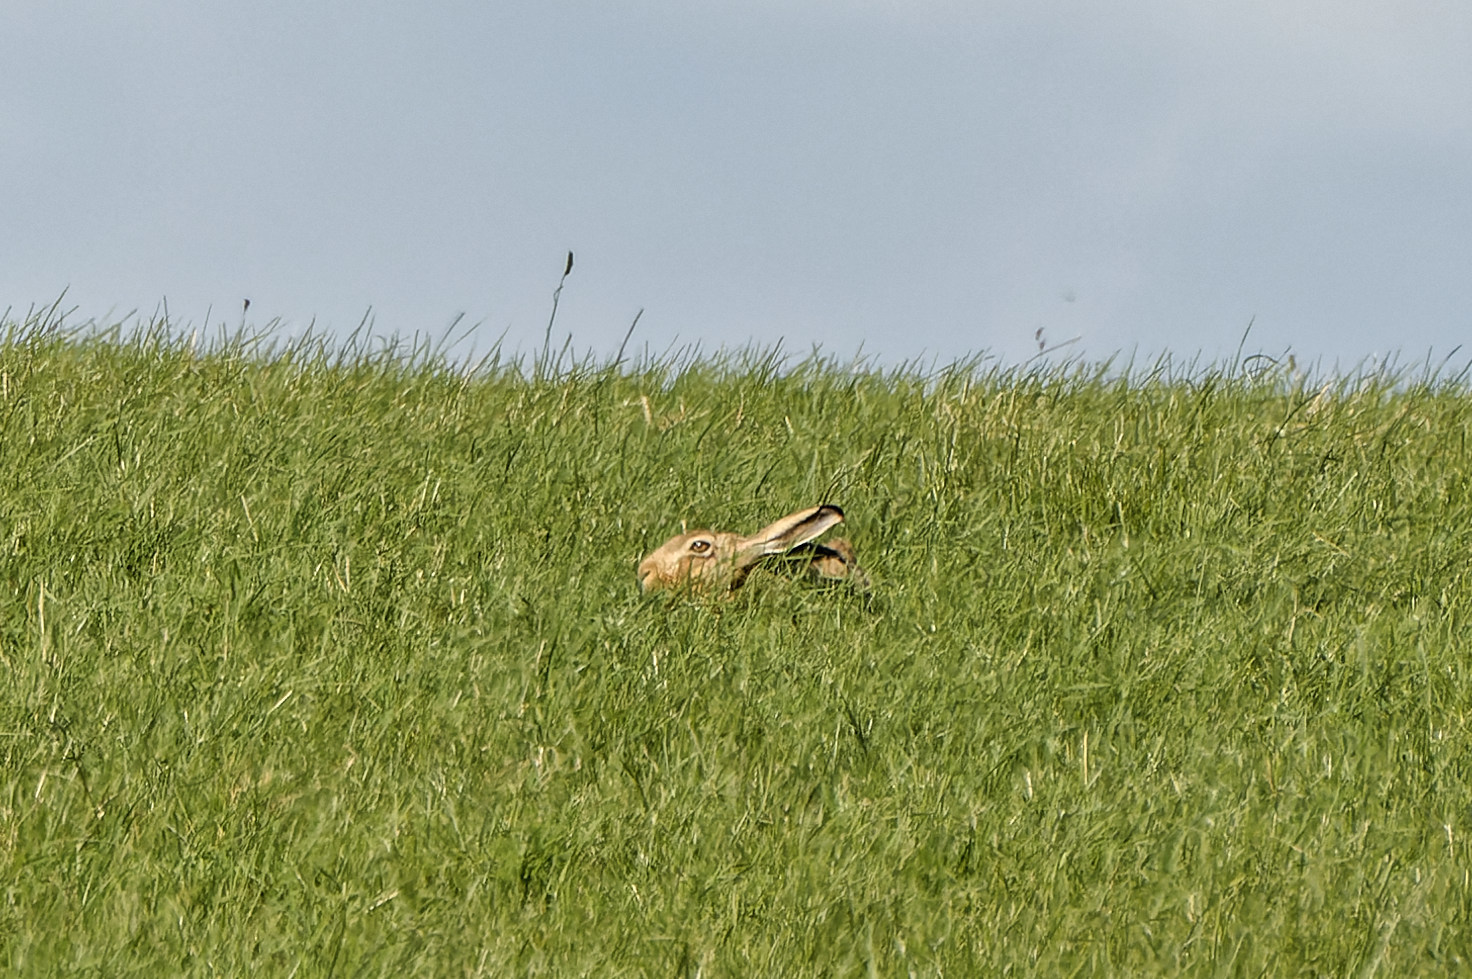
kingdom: Animalia
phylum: Chordata
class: Mammalia
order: Lagomorpha
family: Leporidae
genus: Lepus
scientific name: Lepus europaeus
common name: European hare
